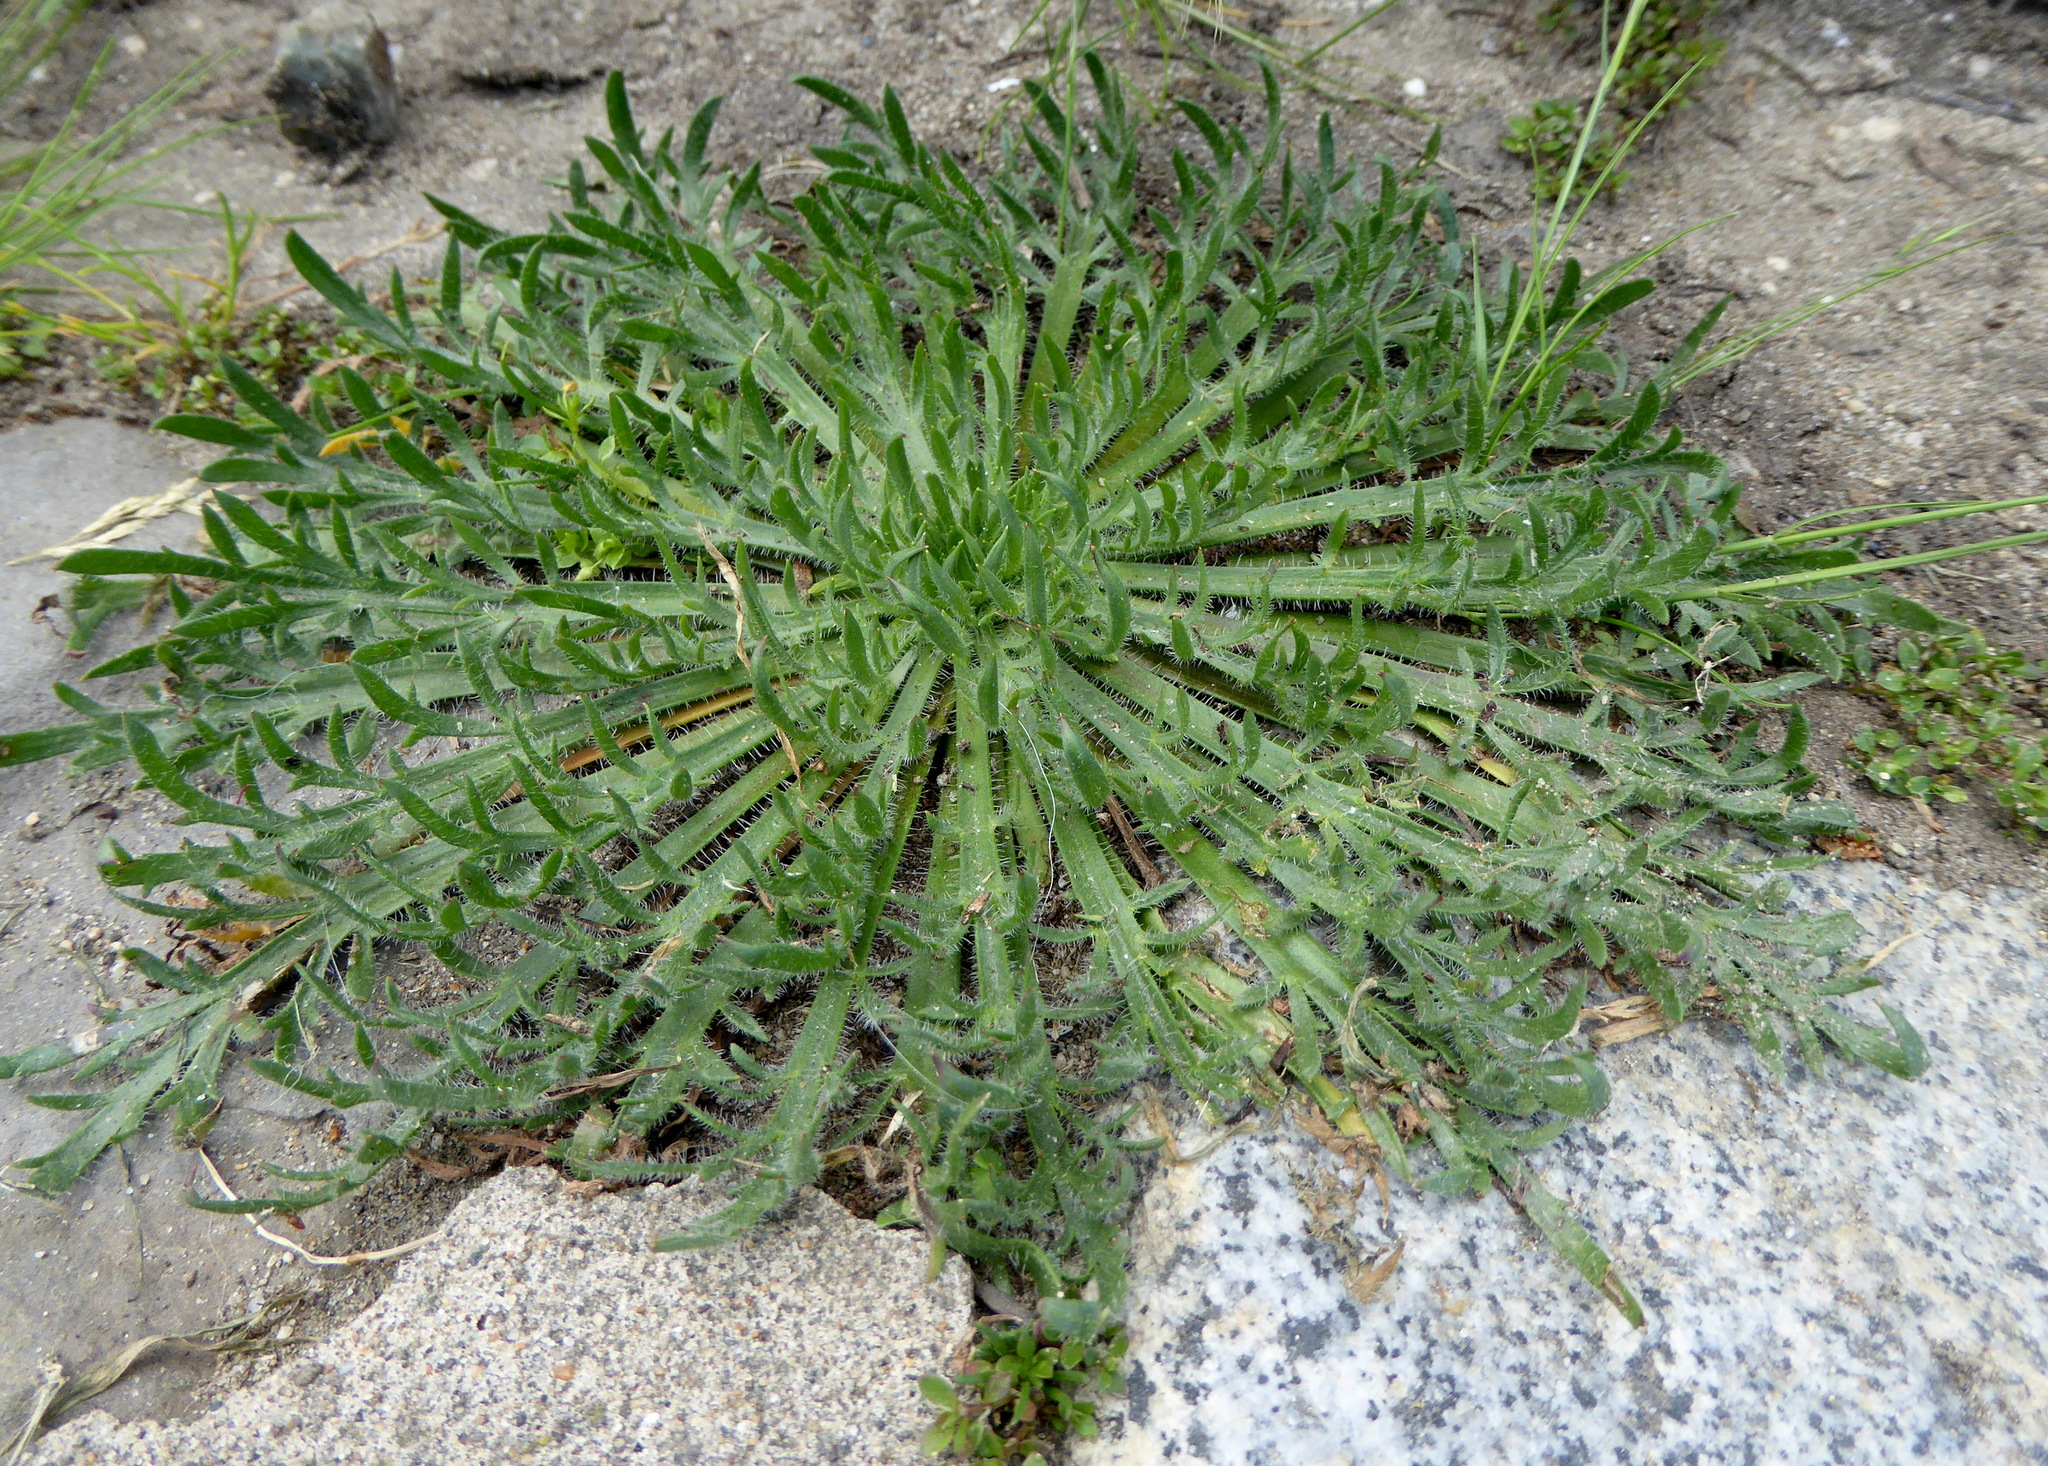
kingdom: Plantae
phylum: Tracheophyta
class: Magnoliopsida
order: Lamiales
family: Plantaginaceae
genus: Plantago
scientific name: Plantago coronopus
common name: Buck's-horn plantain
